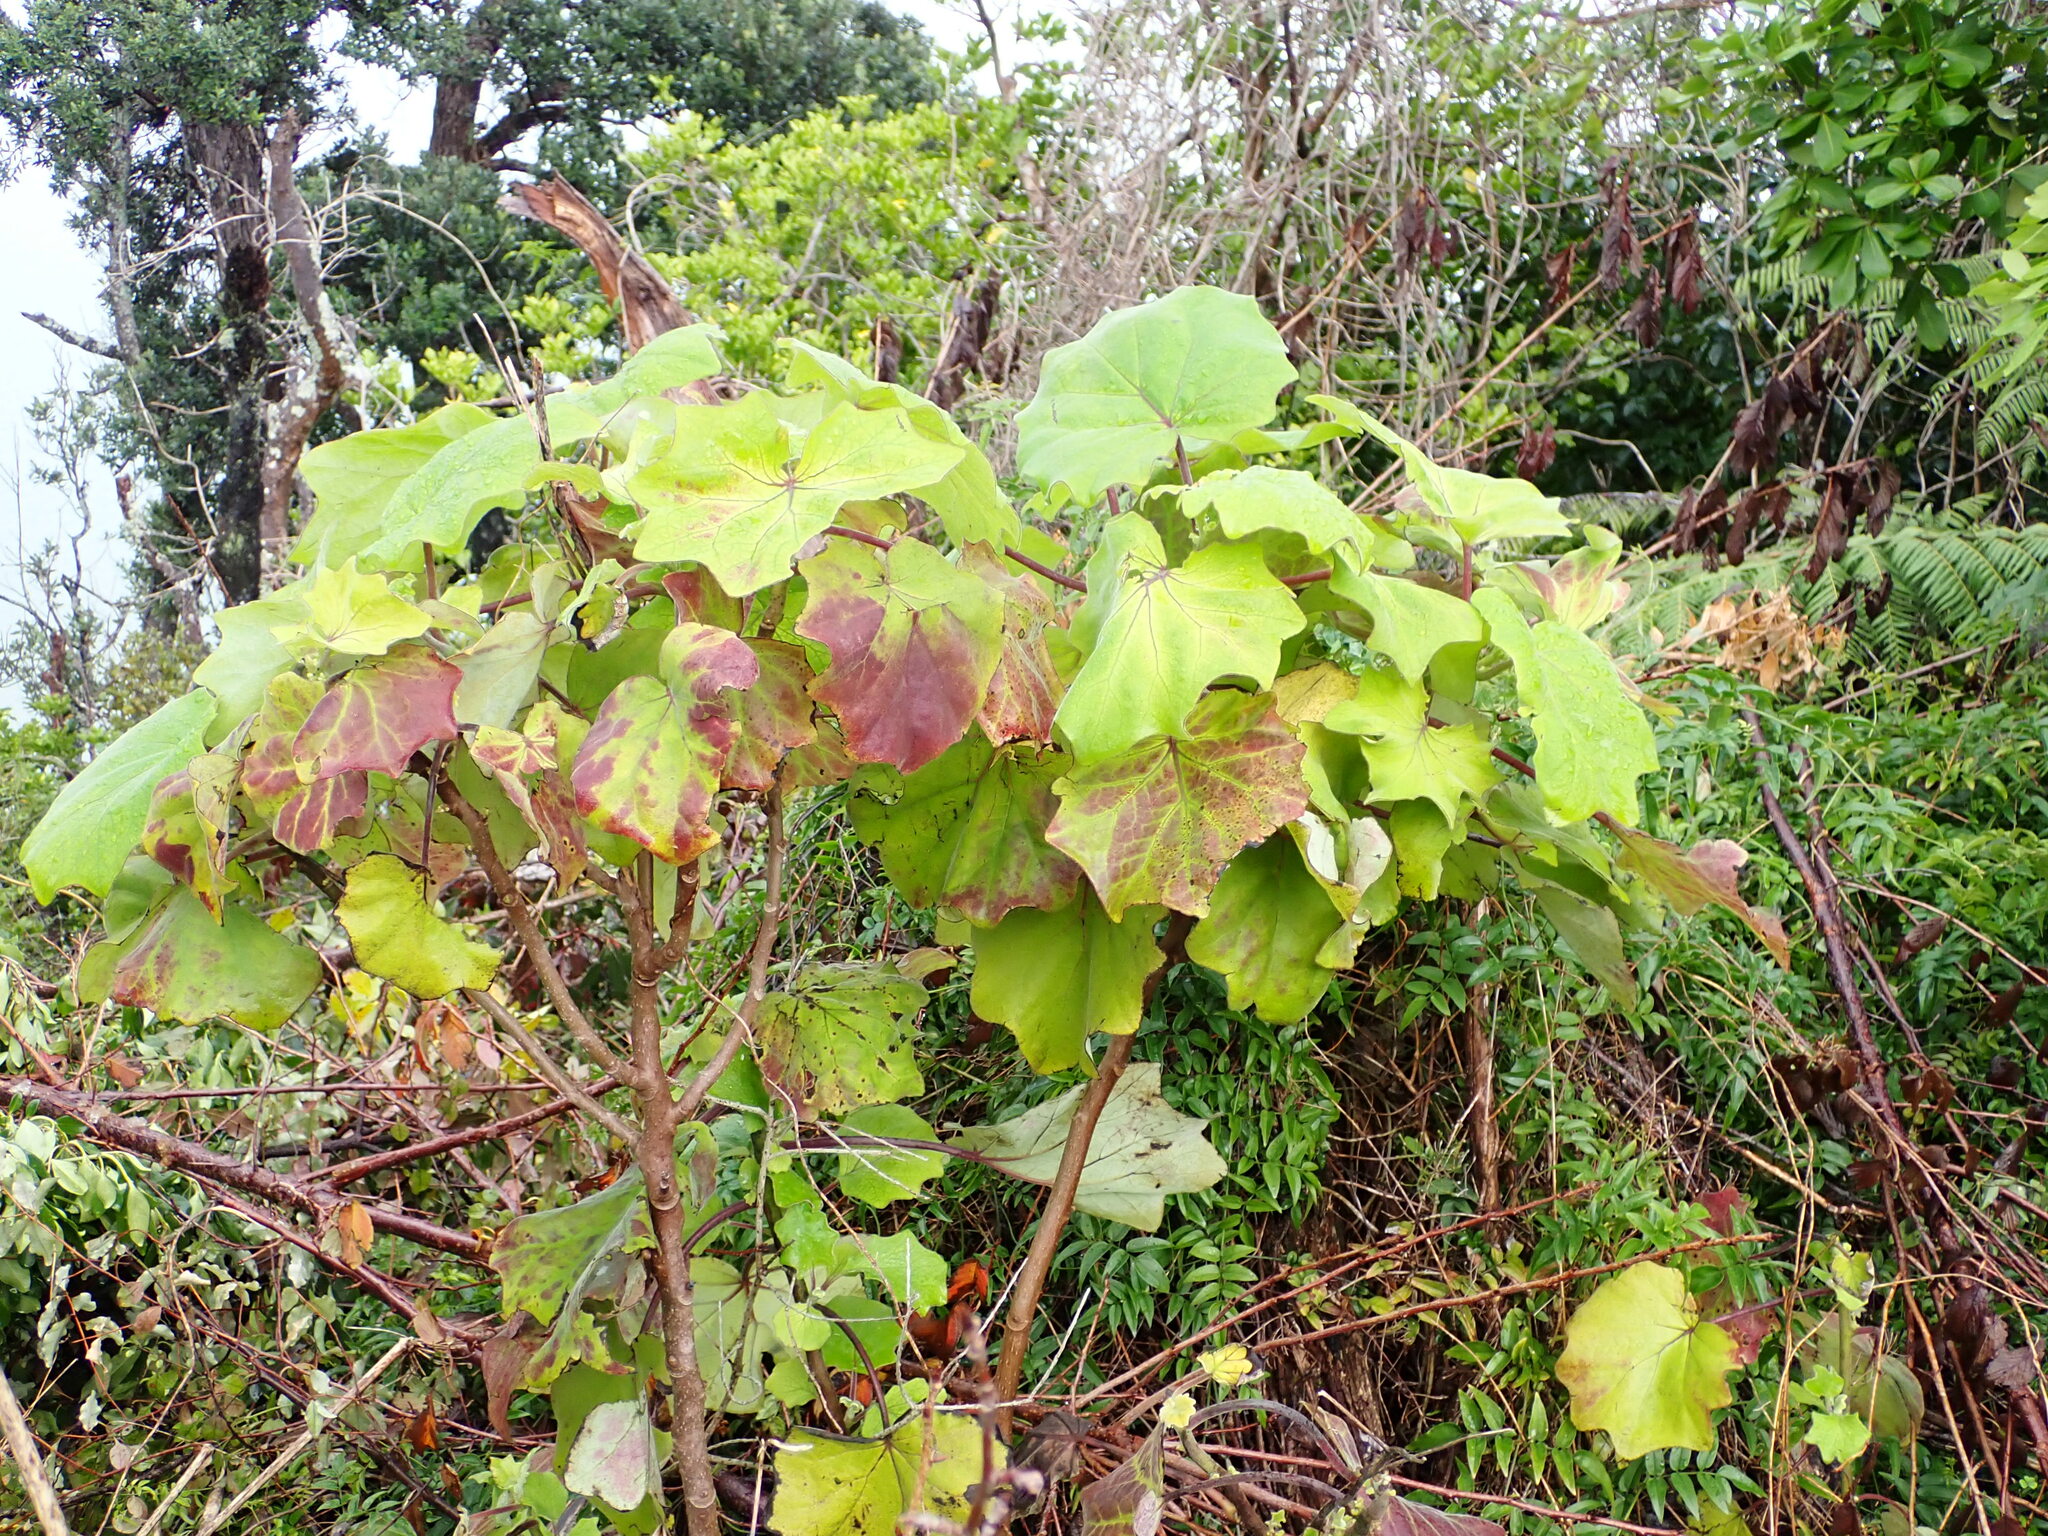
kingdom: Plantae
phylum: Tracheophyta
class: Magnoliopsida
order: Asterales
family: Asteraceae
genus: Roldana
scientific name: Roldana petasitis
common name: California-geranium
